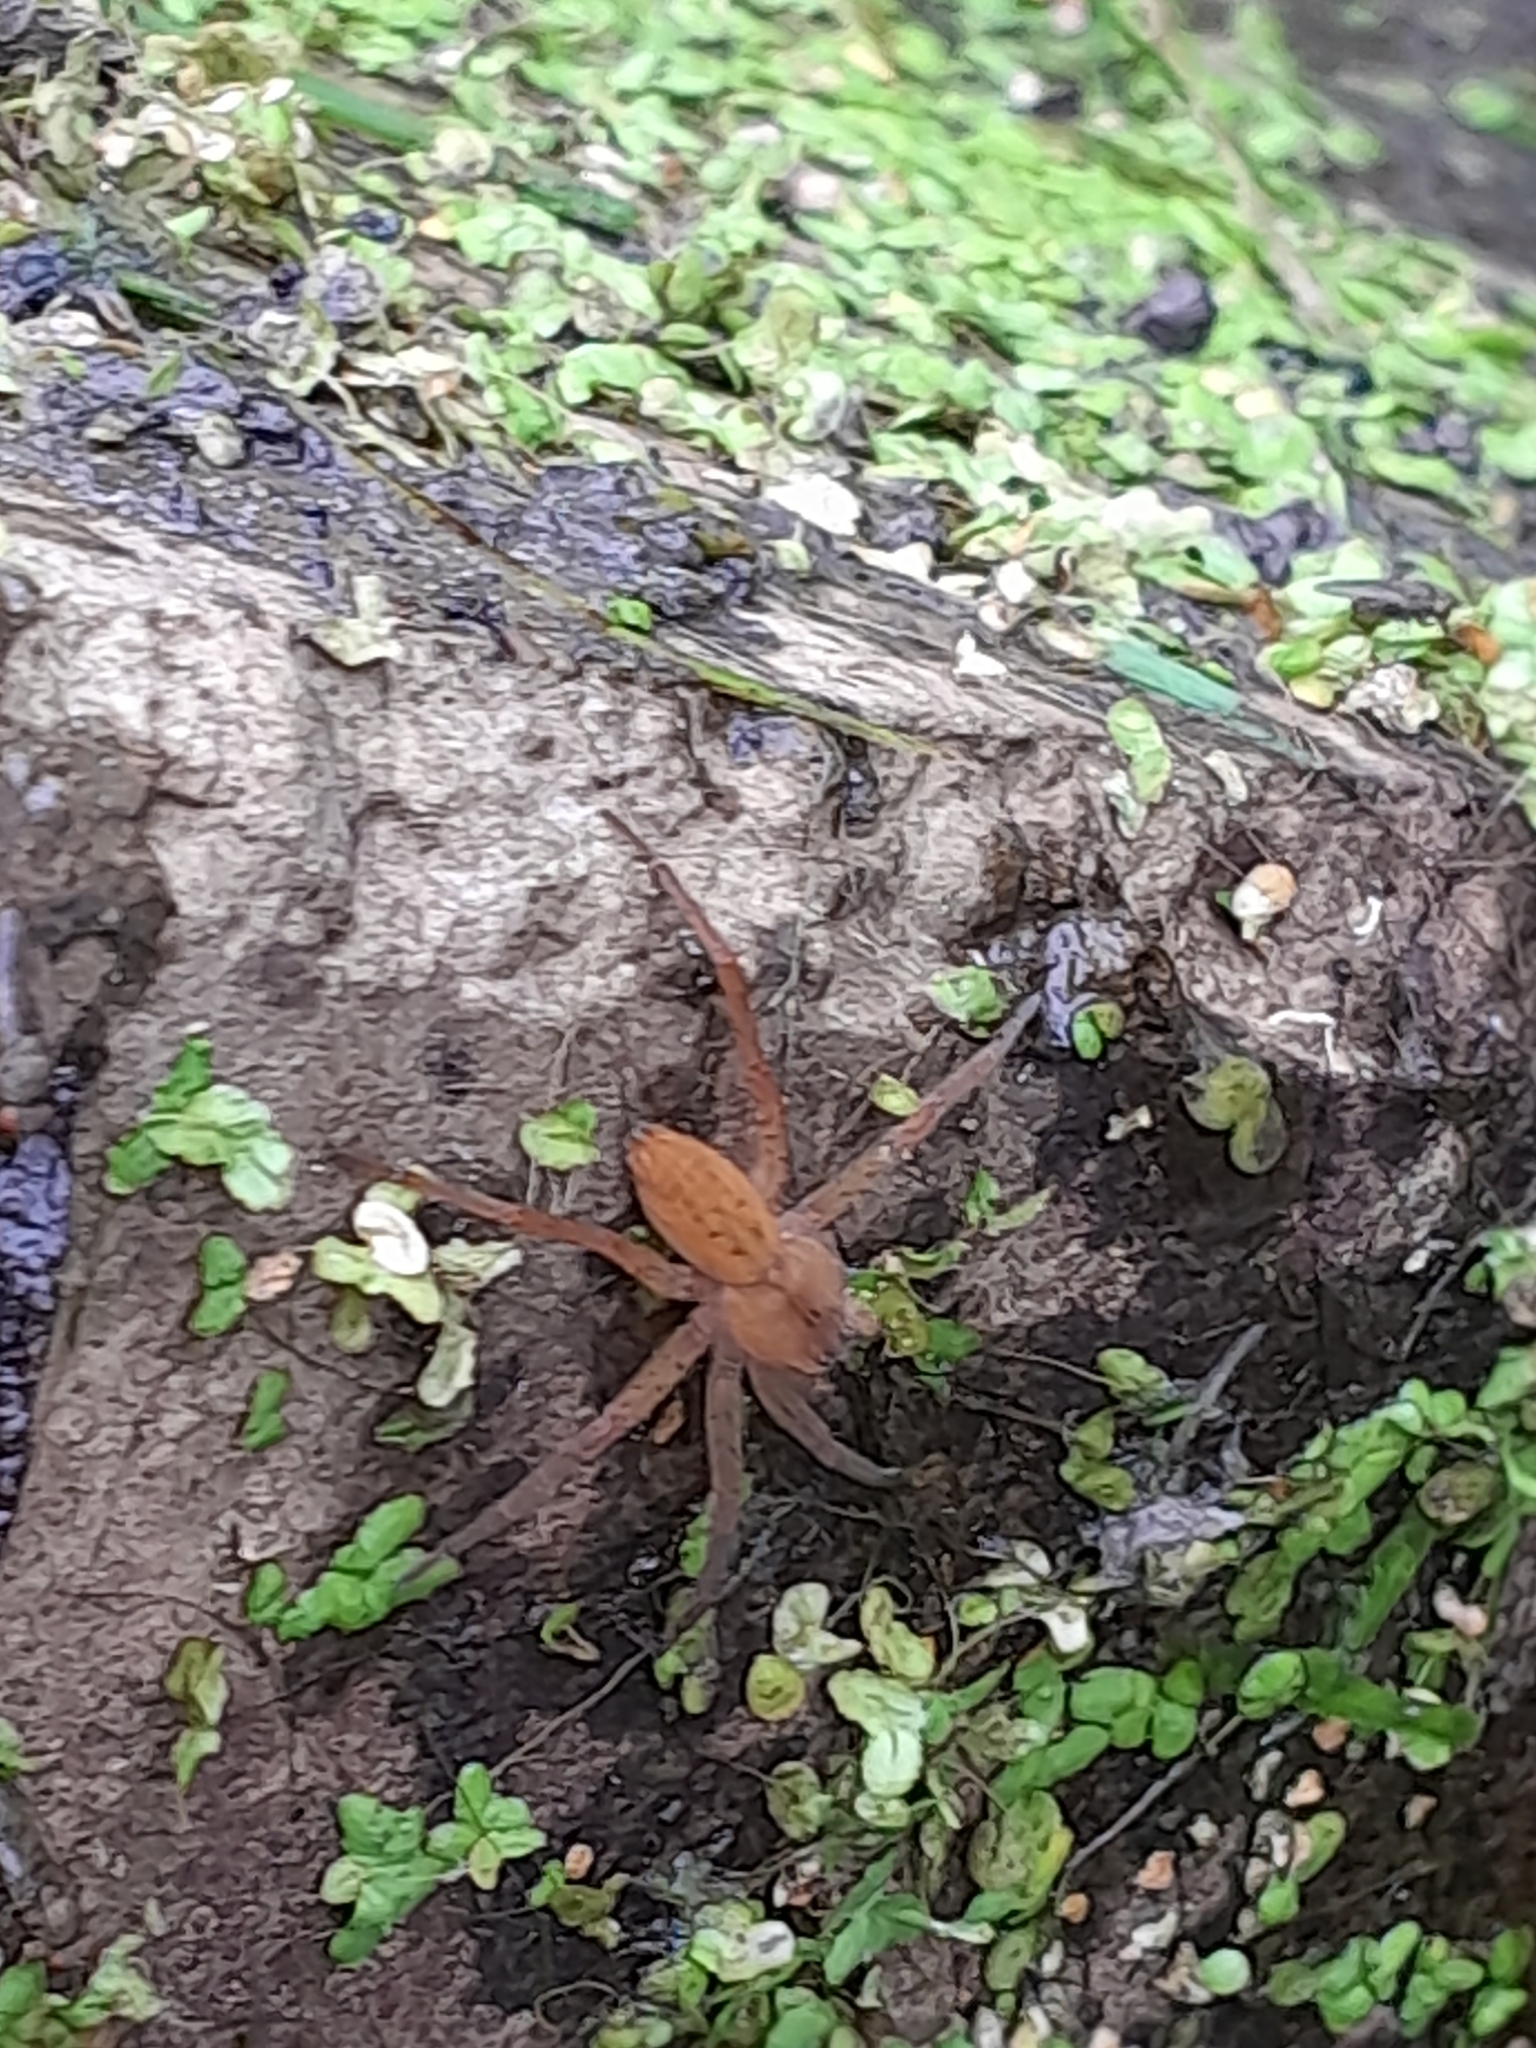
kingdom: Animalia
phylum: Arthropoda
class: Arachnida
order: Araneae
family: Pisauridae
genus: Dolomedes
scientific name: Dolomedes
